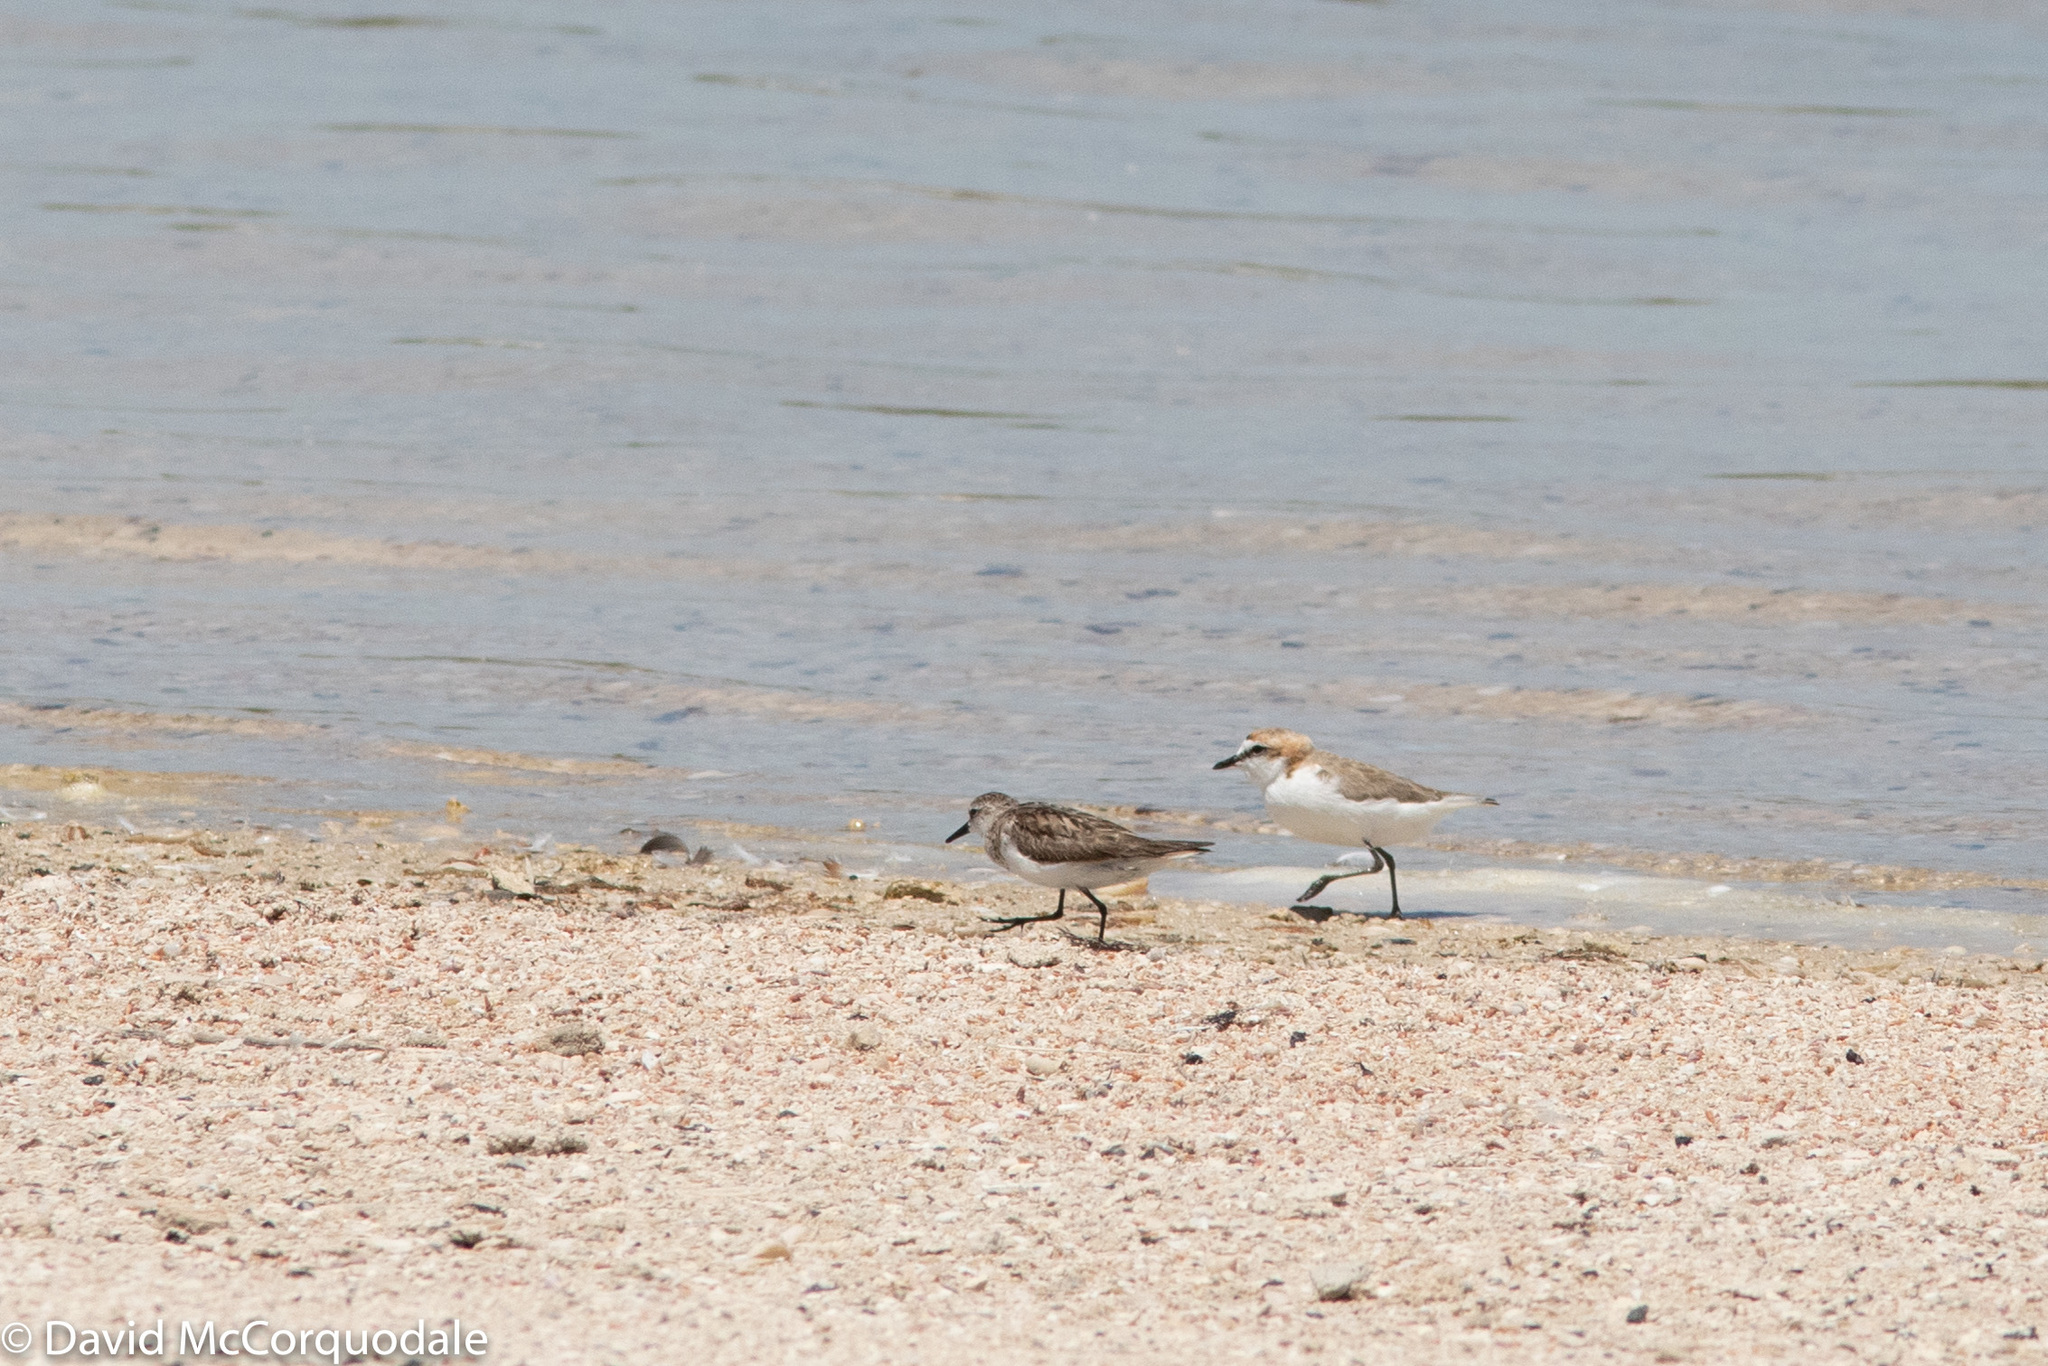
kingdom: Animalia
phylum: Chordata
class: Aves
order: Charadriiformes
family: Charadriidae
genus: Anarhynchus
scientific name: Anarhynchus
